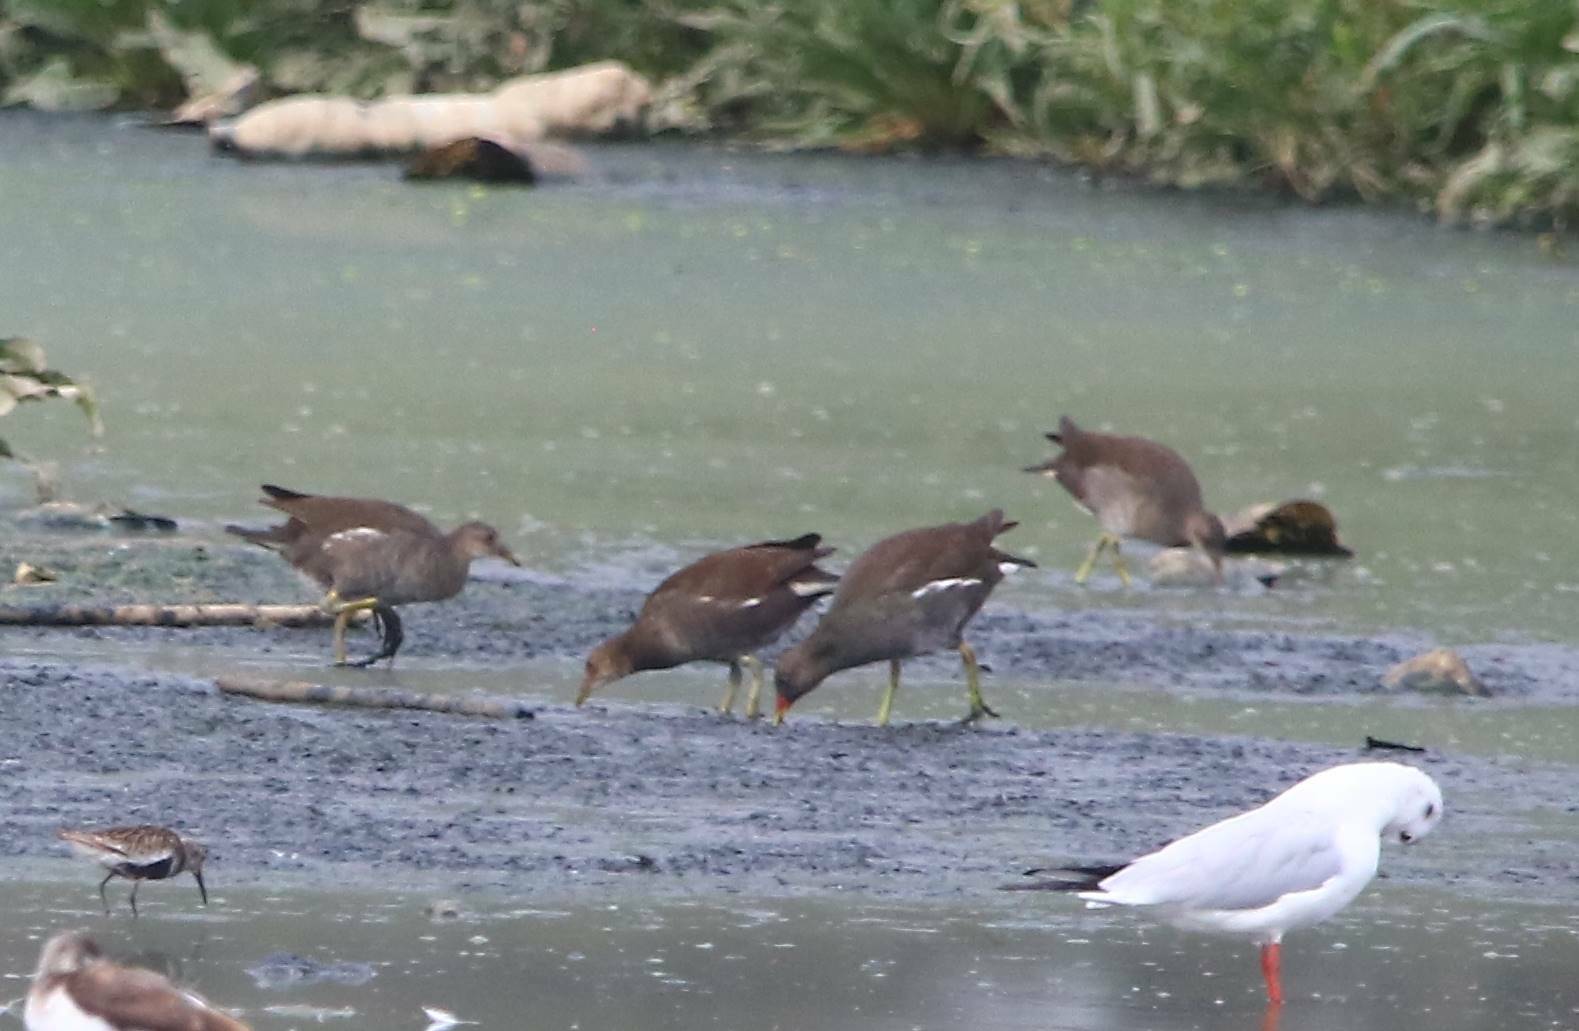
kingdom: Animalia
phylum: Chordata
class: Aves
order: Gruiformes
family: Rallidae
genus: Gallinula
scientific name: Gallinula chloropus
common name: Common moorhen
